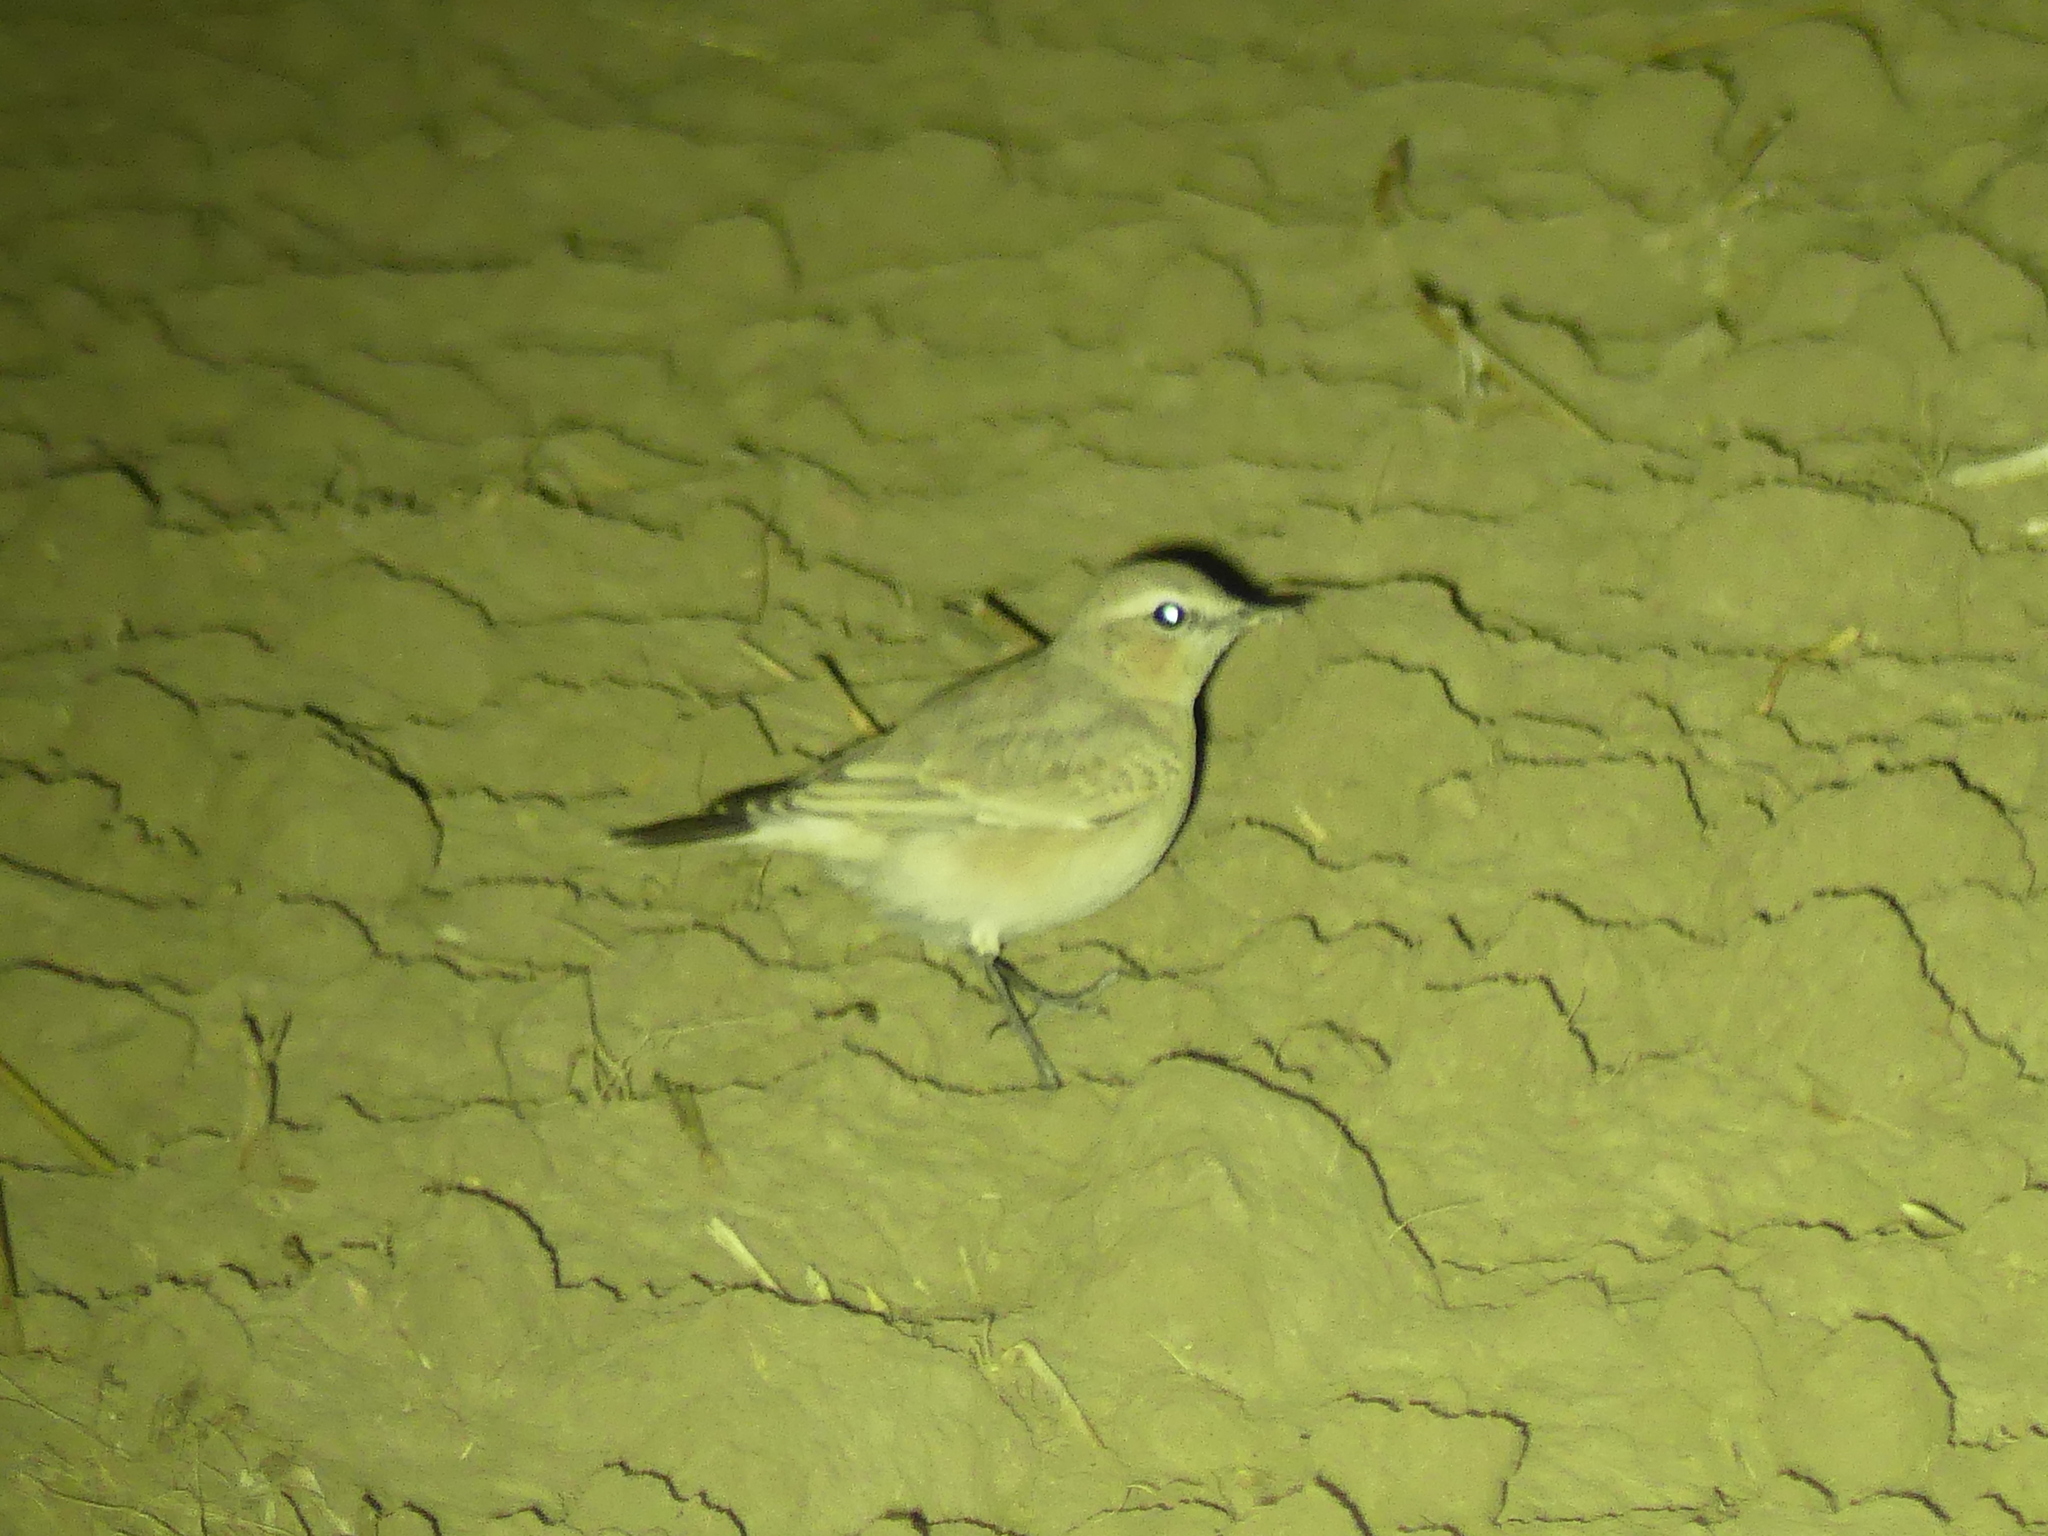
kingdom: Animalia
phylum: Chordata
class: Aves
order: Passeriformes
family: Muscicapidae
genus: Oenanthe
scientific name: Oenanthe oenanthe
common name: Northern wheatear
